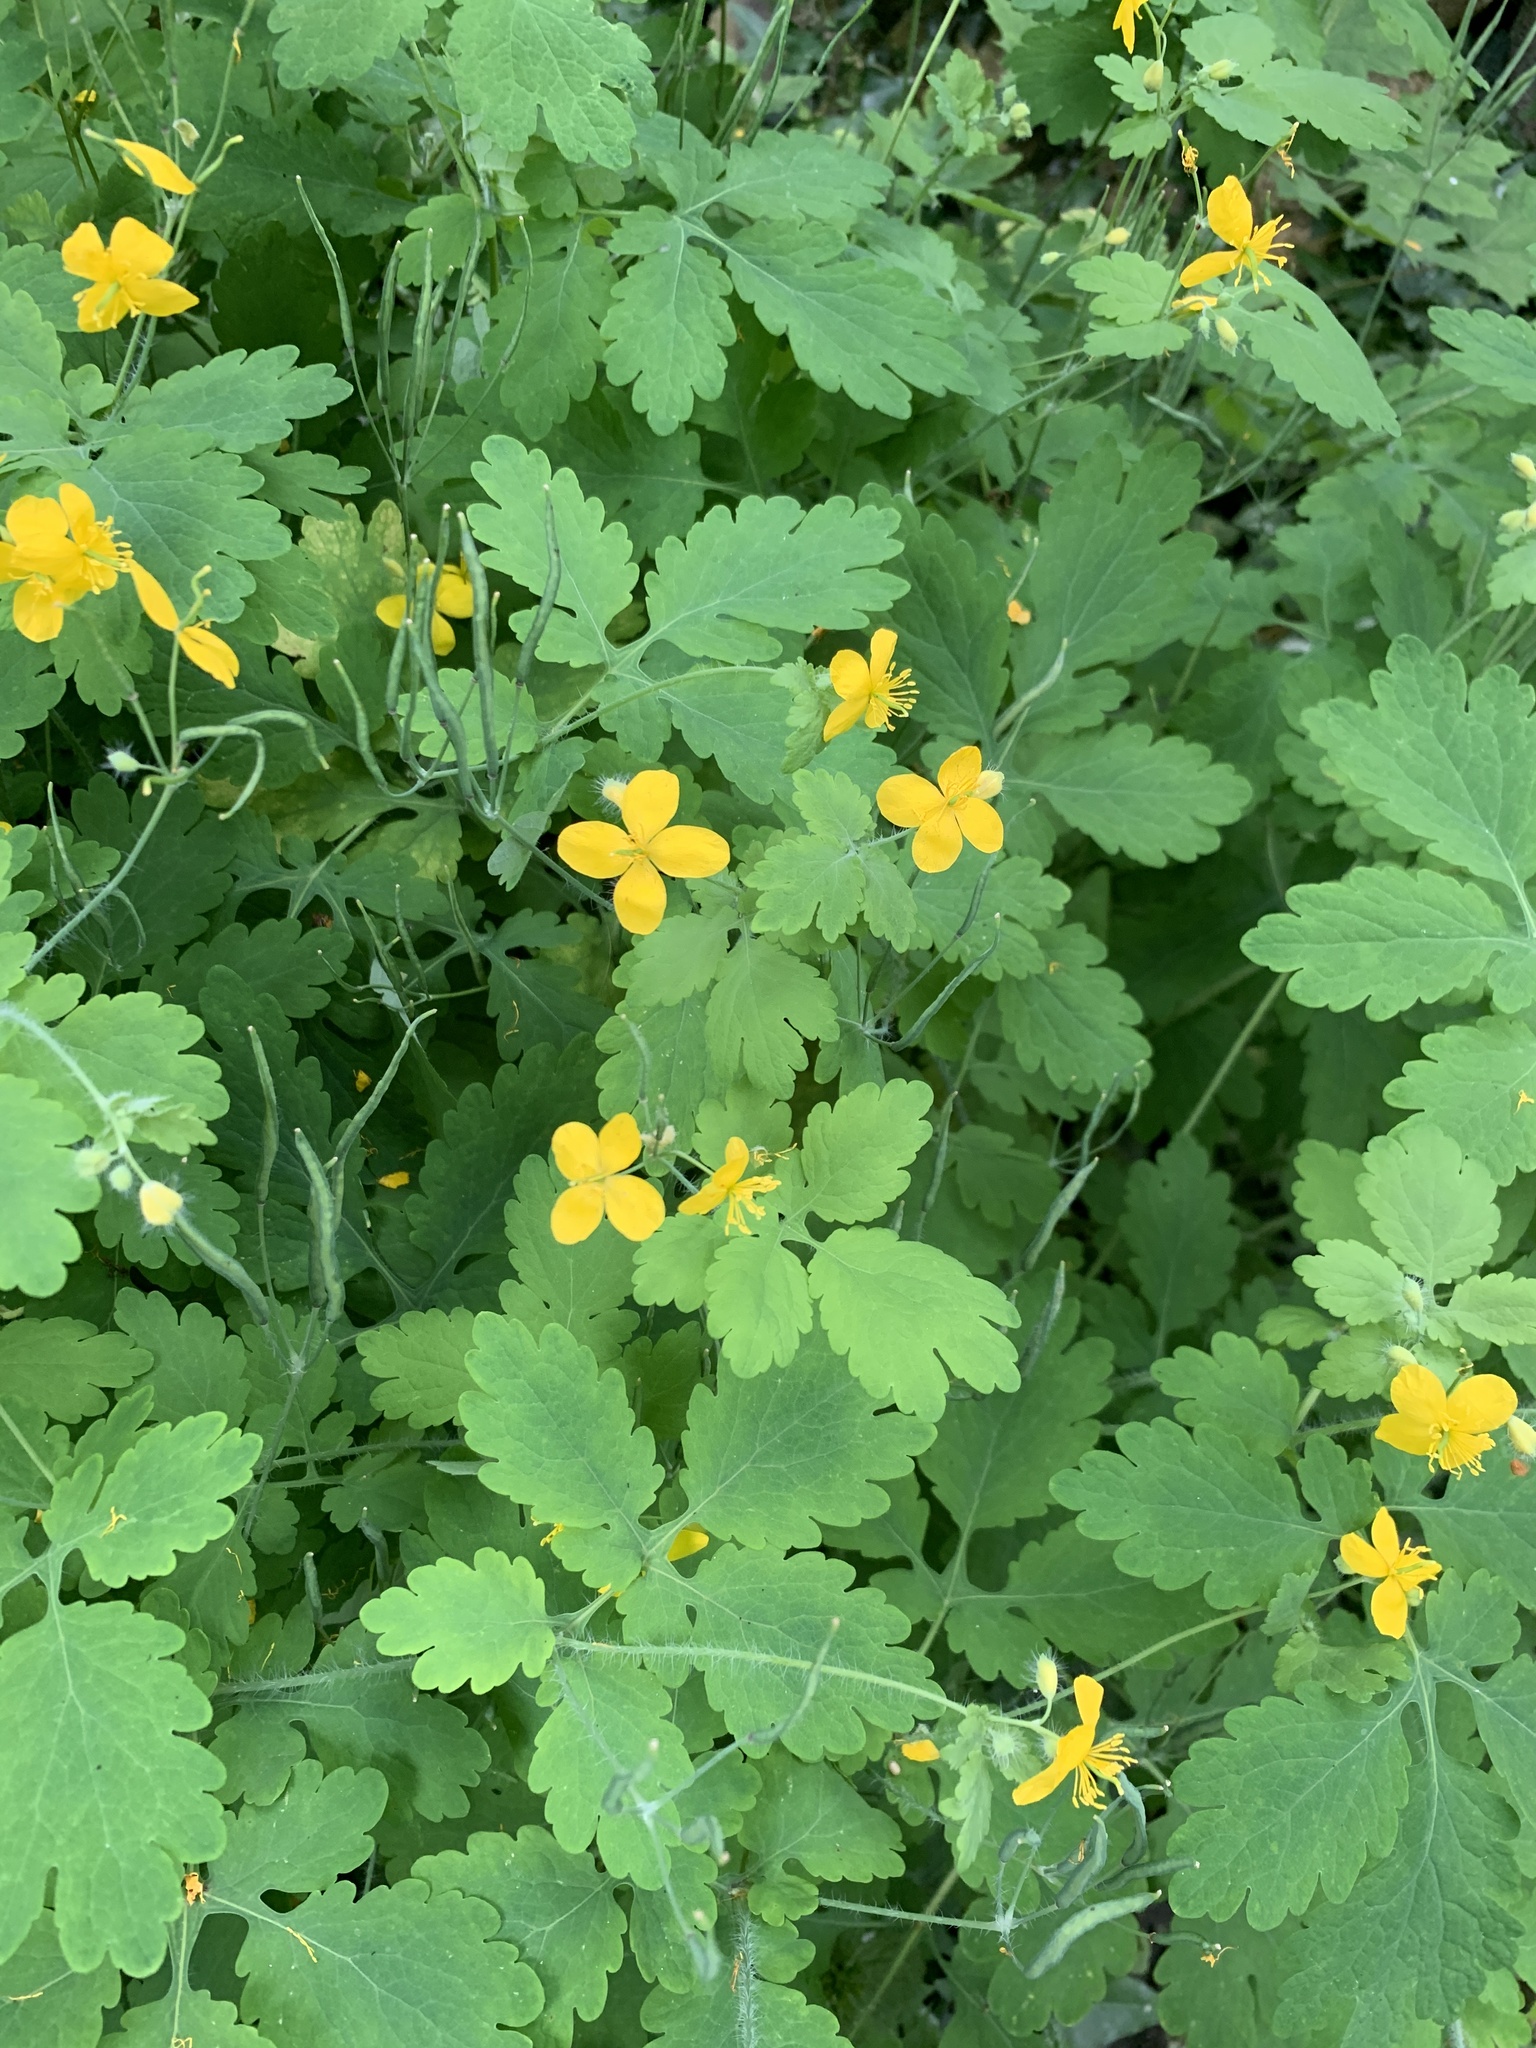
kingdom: Plantae
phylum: Tracheophyta
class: Magnoliopsida
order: Ranunculales
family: Papaveraceae
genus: Chelidonium
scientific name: Chelidonium majus
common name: Greater celandine
